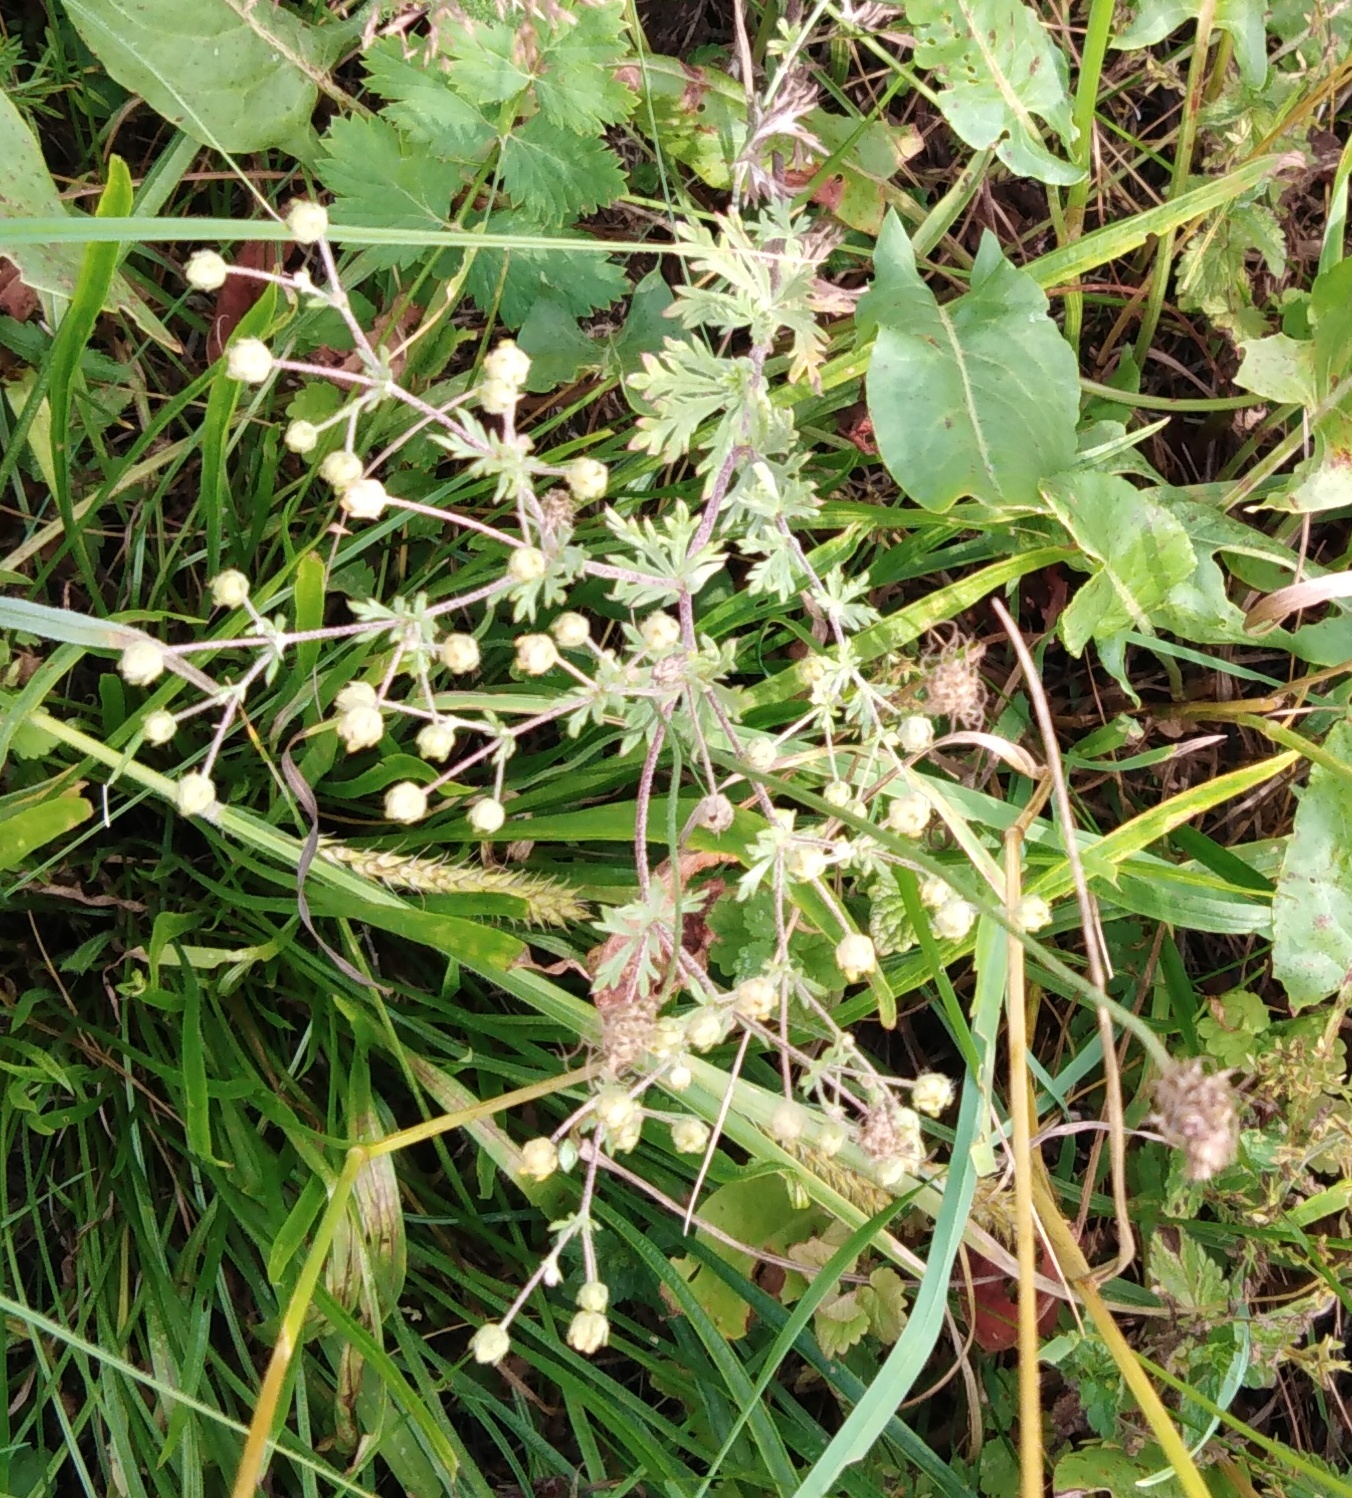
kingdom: Plantae
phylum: Tracheophyta
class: Magnoliopsida
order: Rosales
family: Rosaceae
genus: Potentilla
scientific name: Potentilla argentea
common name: Hoary cinquefoil
